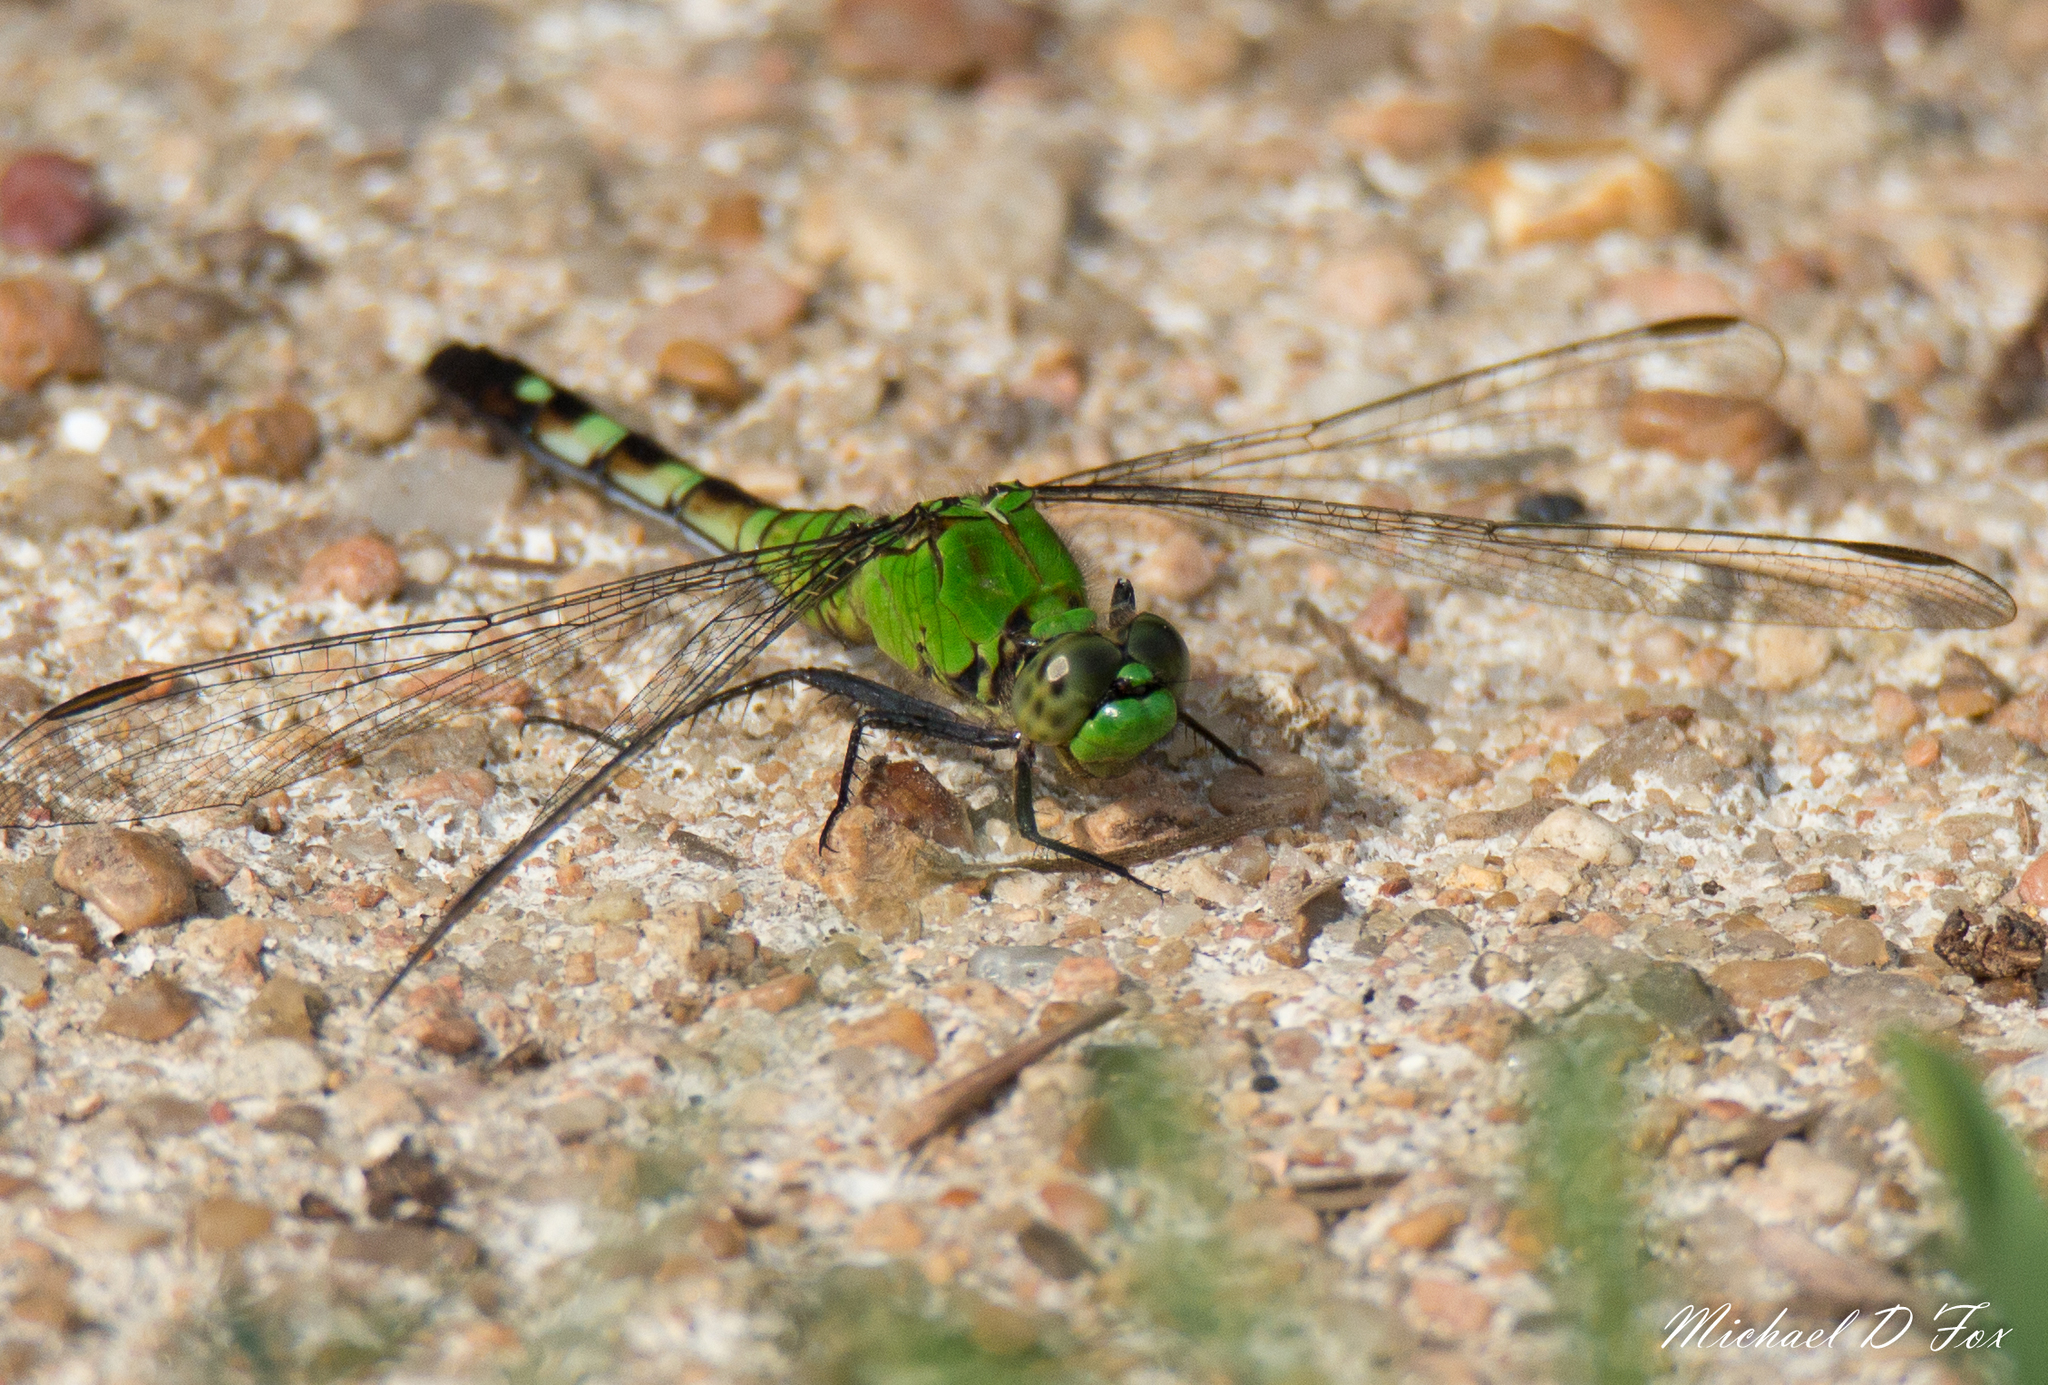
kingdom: Animalia
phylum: Arthropoda
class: Insecta
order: Odonata
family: Libellulidae
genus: Erythemis
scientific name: Erythemis simplicicollis
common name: Eastern pondhawk
